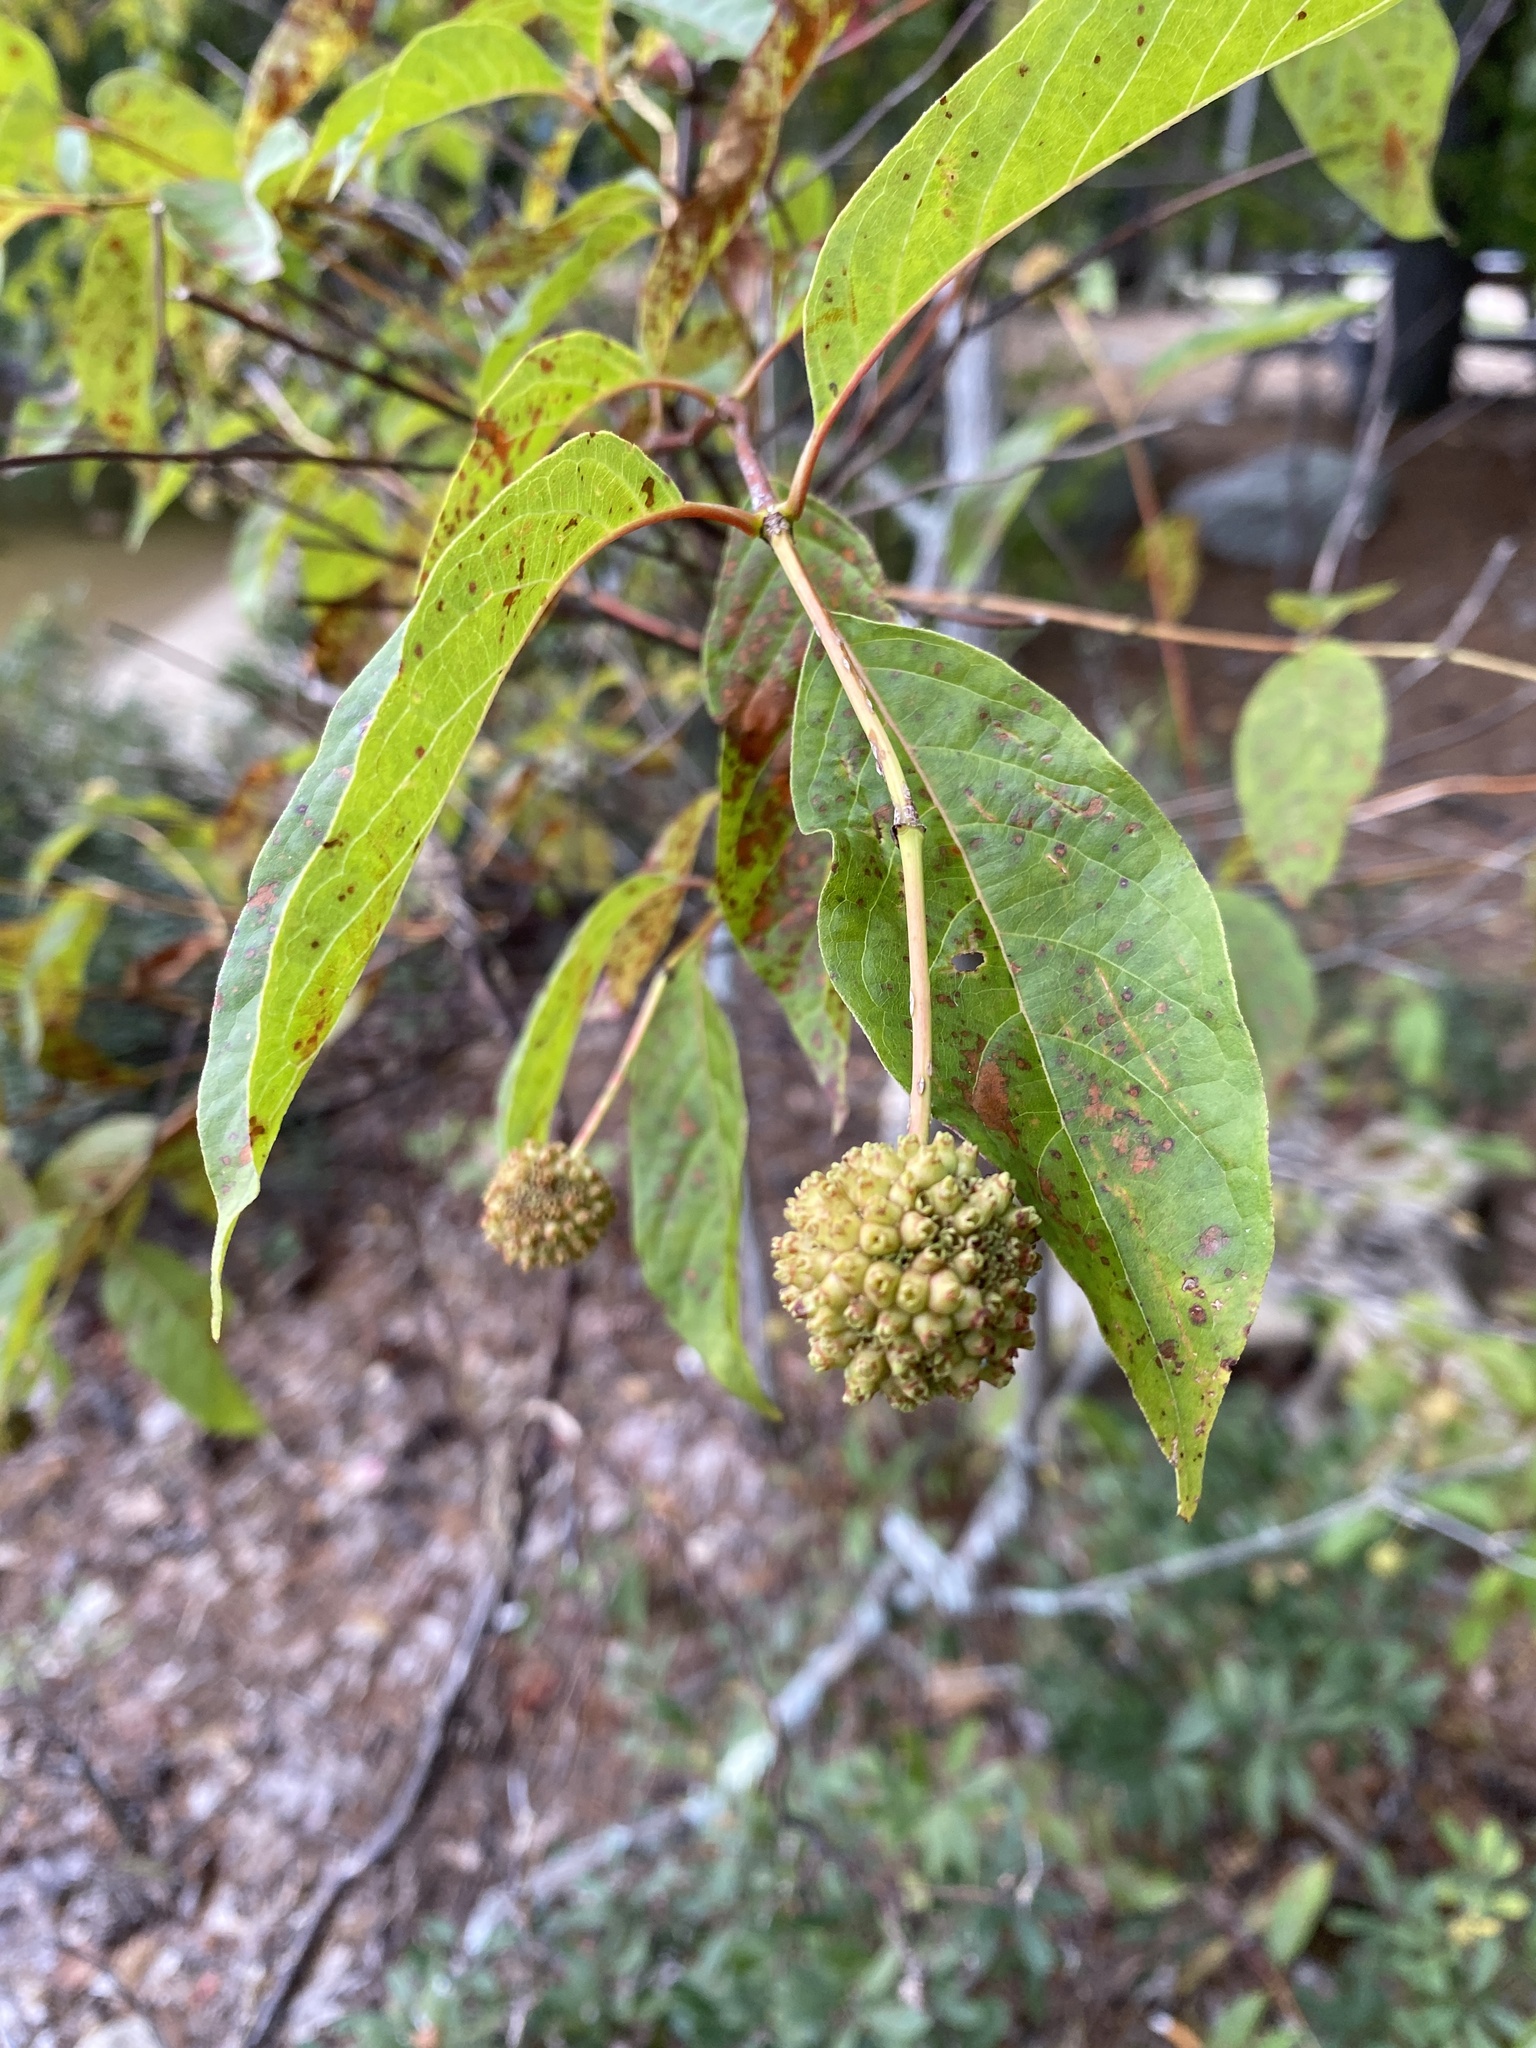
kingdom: Plantae
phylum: Tracheophyta
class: Magnoliopsida
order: Gentianales
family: Rubiaceae
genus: Cephalanthus
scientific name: Cephalanthus occidentalis
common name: Button-willow
